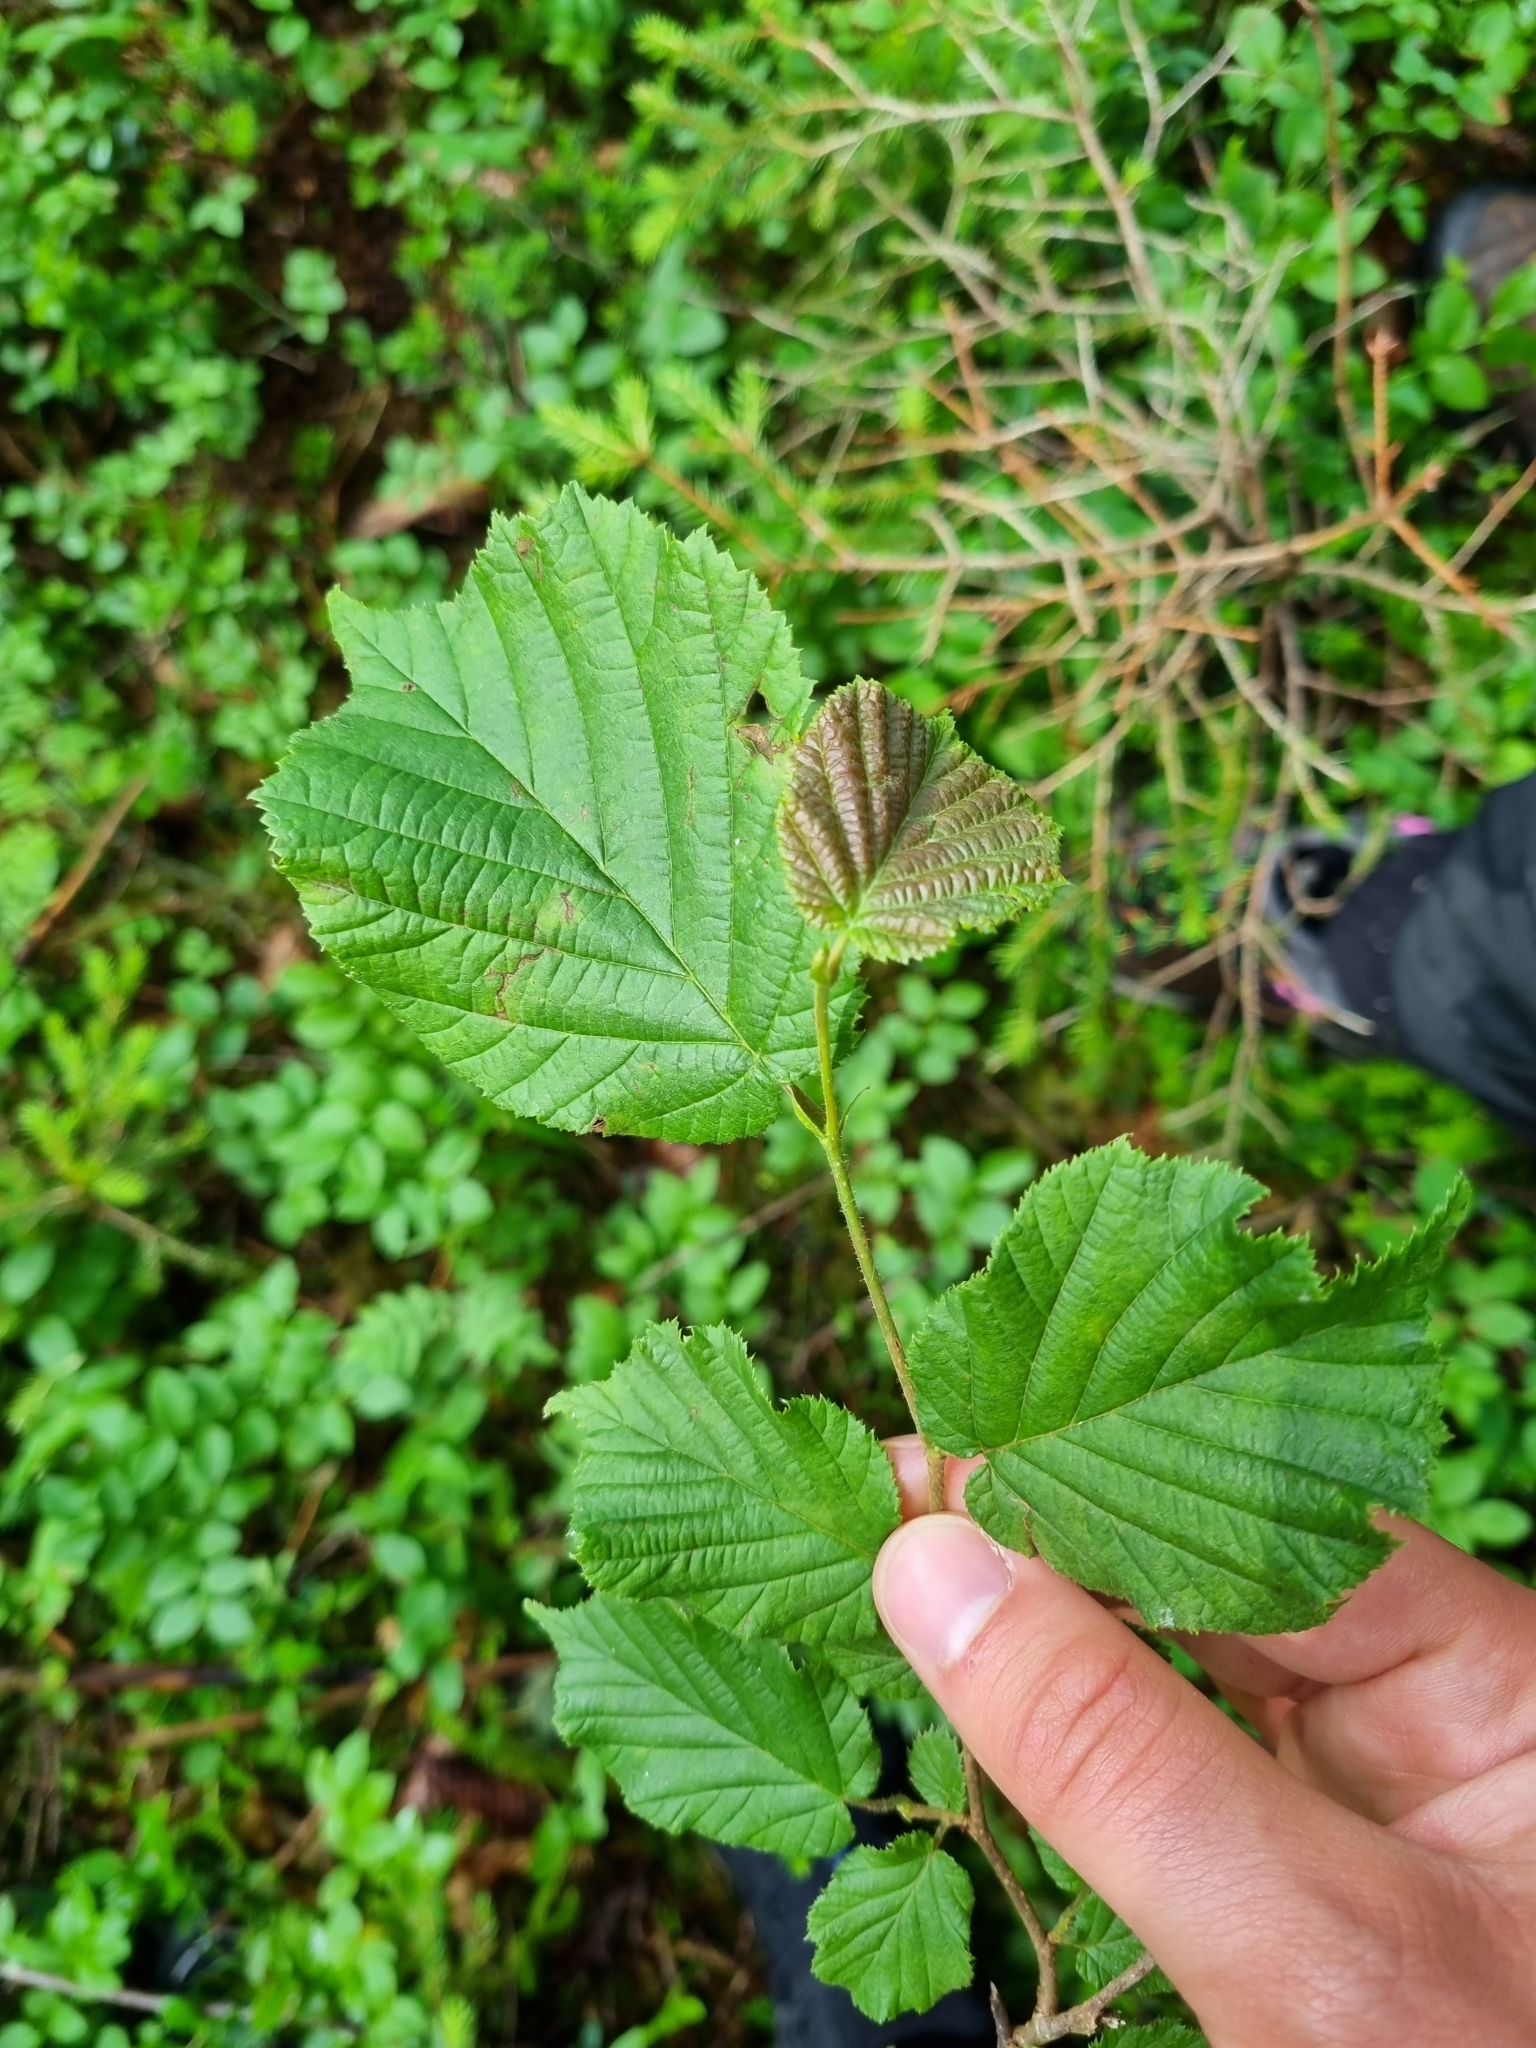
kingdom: Plantae
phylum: Tracheophyta
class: Magnoliopsida
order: Fagales
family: Betulaceae
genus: Corylus
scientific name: Corylus avellana
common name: European hazel
